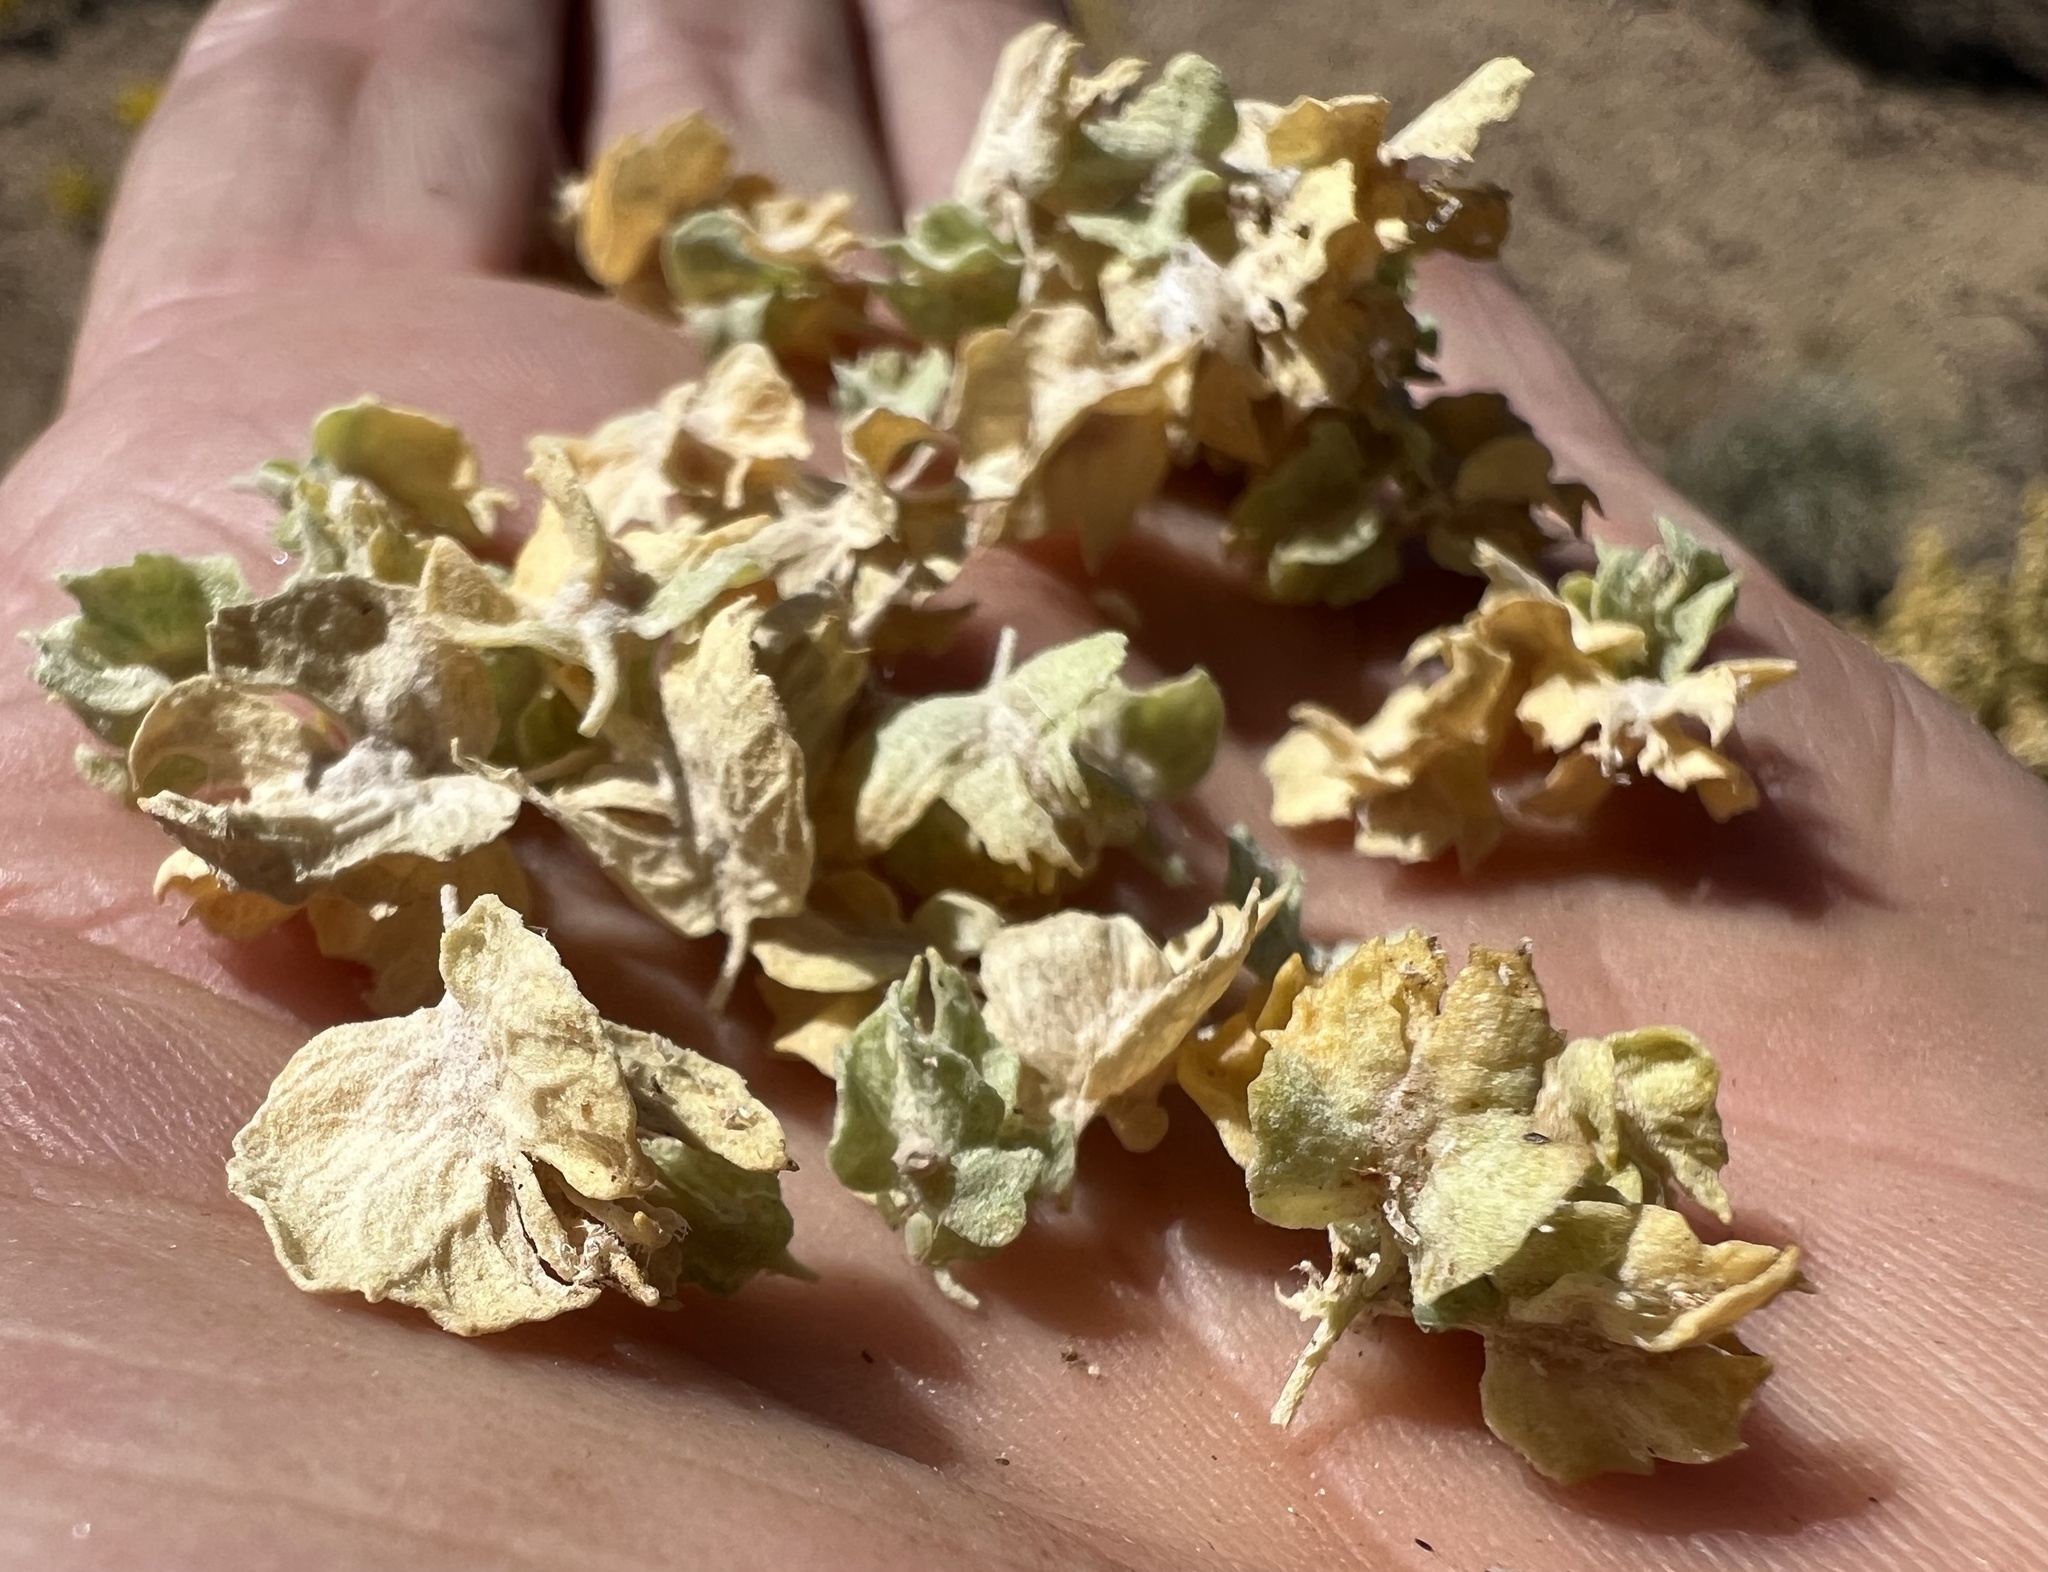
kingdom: Plantae
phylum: Tracheophyta
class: Magnoliopsida
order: Caryophyllales
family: Amaranthaceae
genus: Atriplex
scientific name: Atriplex canescens
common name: Four-wing saltbush
